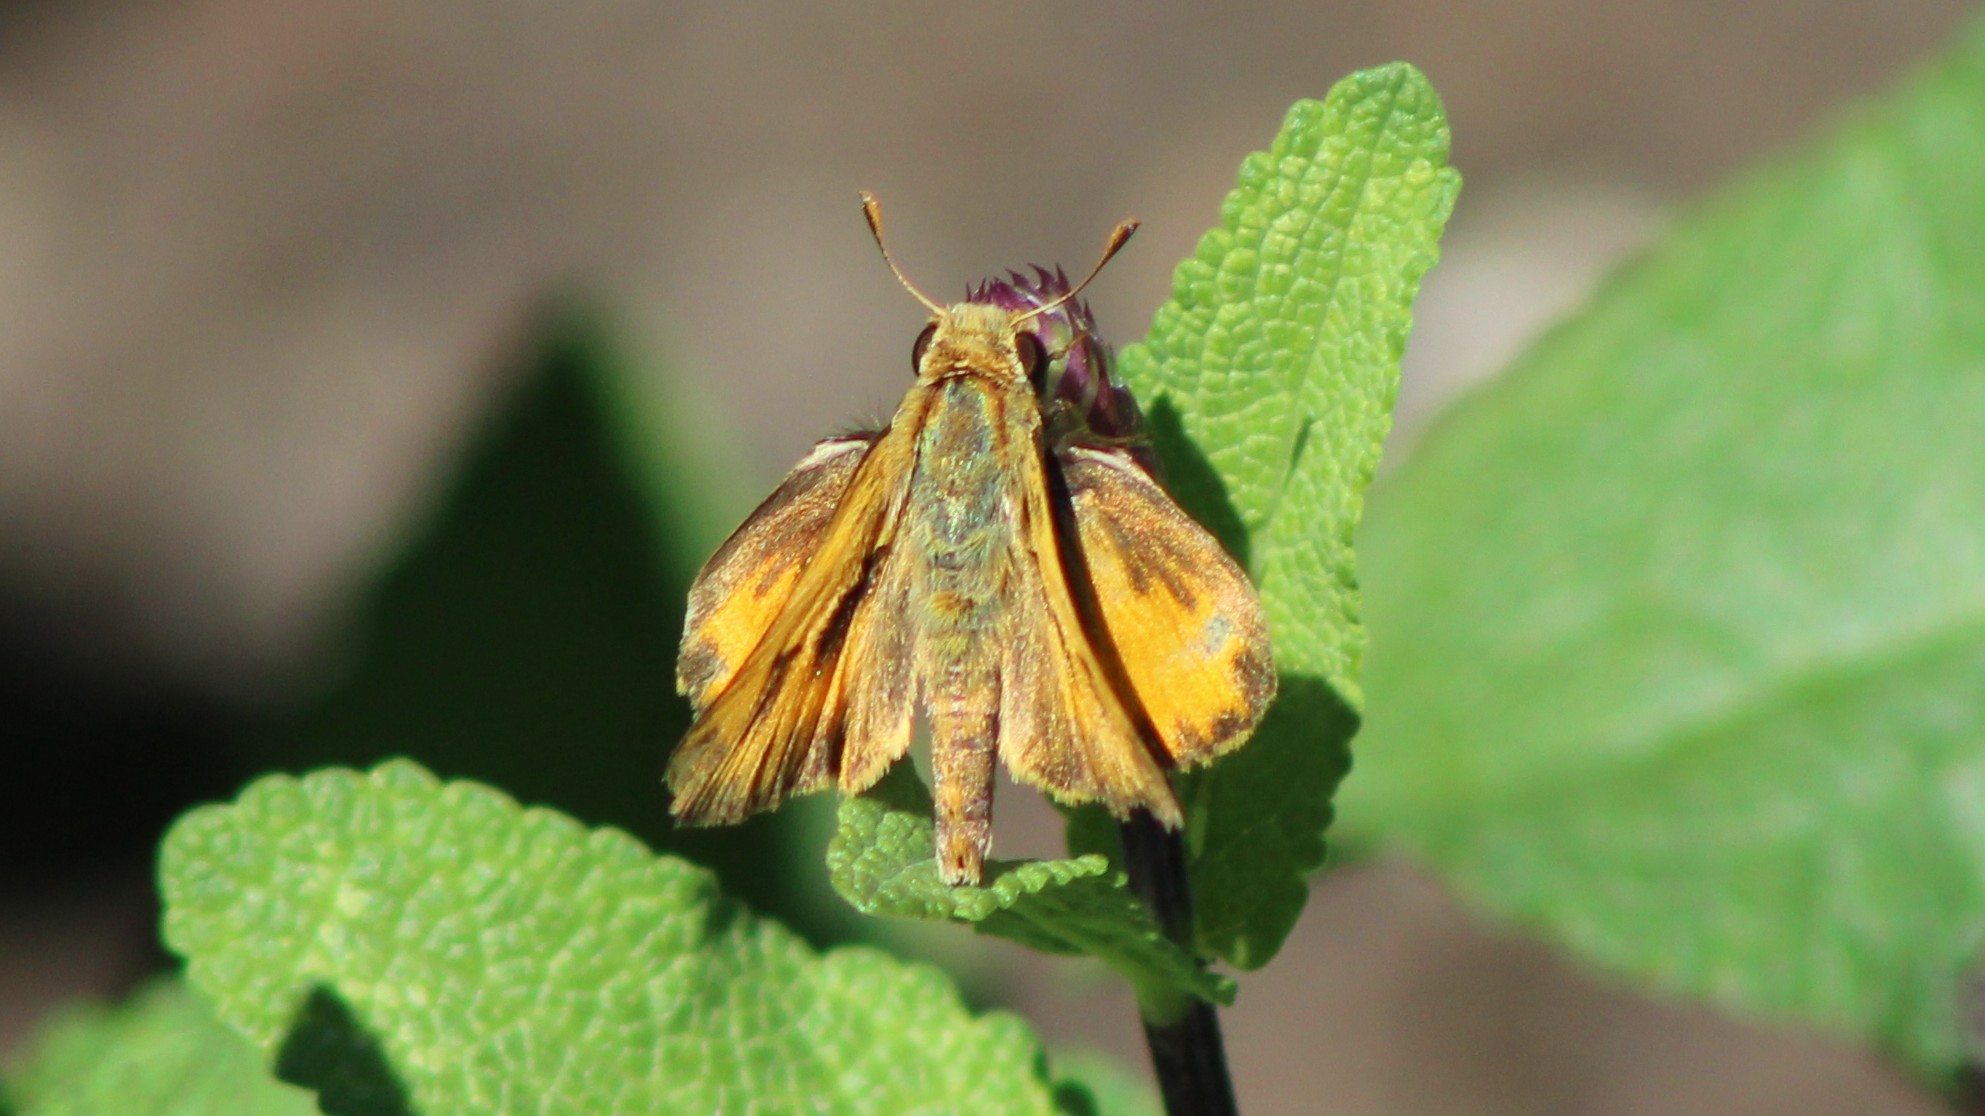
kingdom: Animalia
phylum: Arthropoda
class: Insecta
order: Lepidoptera
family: Hesperiidae
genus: Hylephila
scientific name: Hylephila phyleus
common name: Fiery skipper
